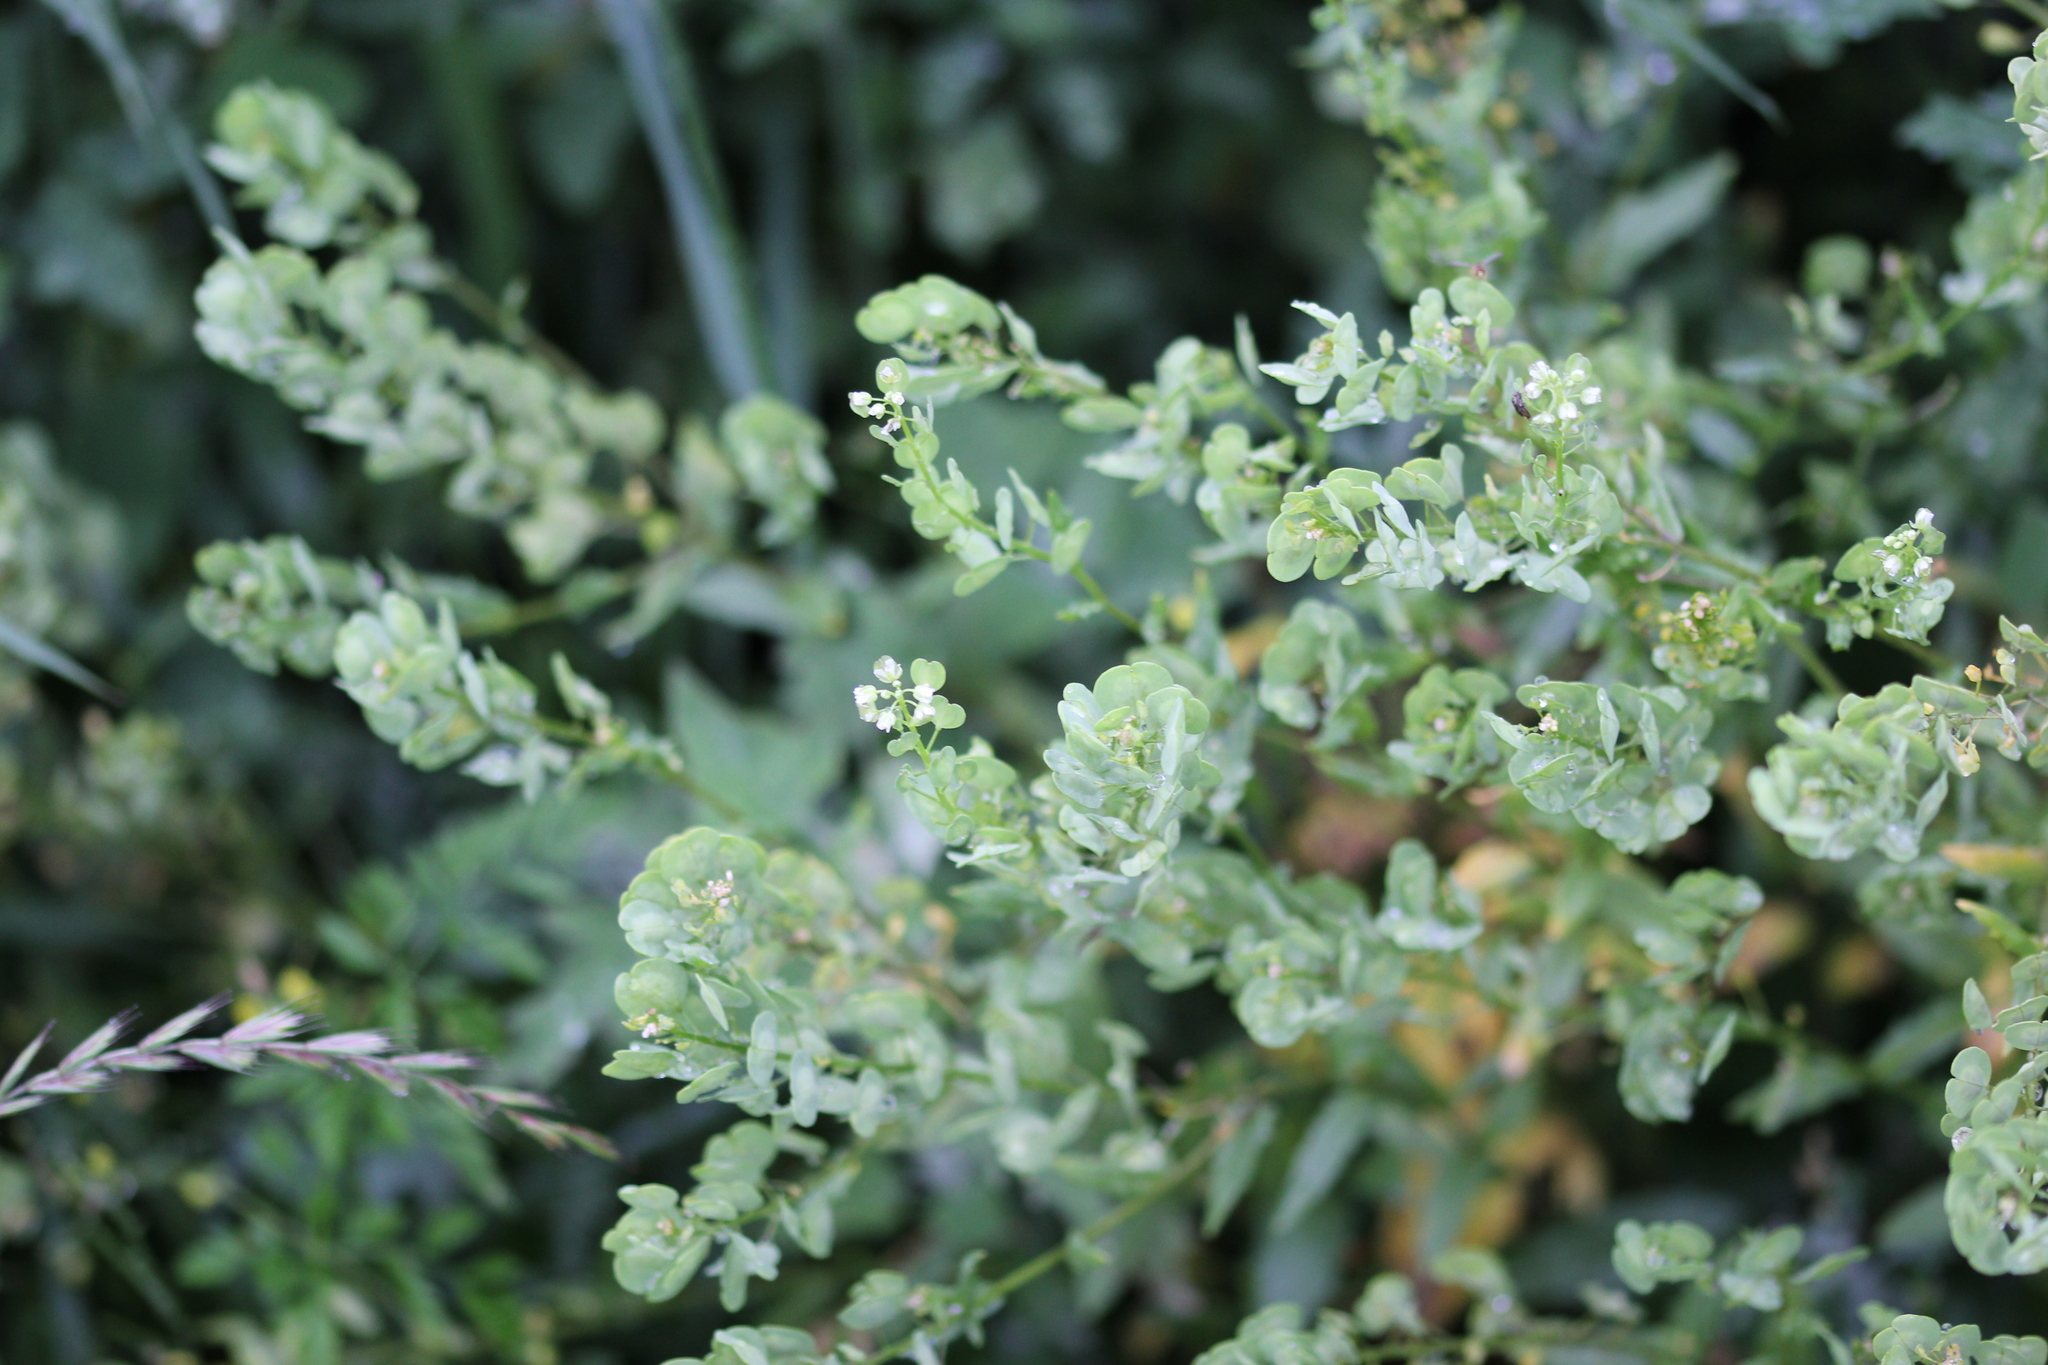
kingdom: Plantae
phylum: Tracheophyta
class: Magnoliopsida
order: Brassicales
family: Brassicaceae
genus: Thlaspi
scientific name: Thlaspi arvense
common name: Field pennycress
